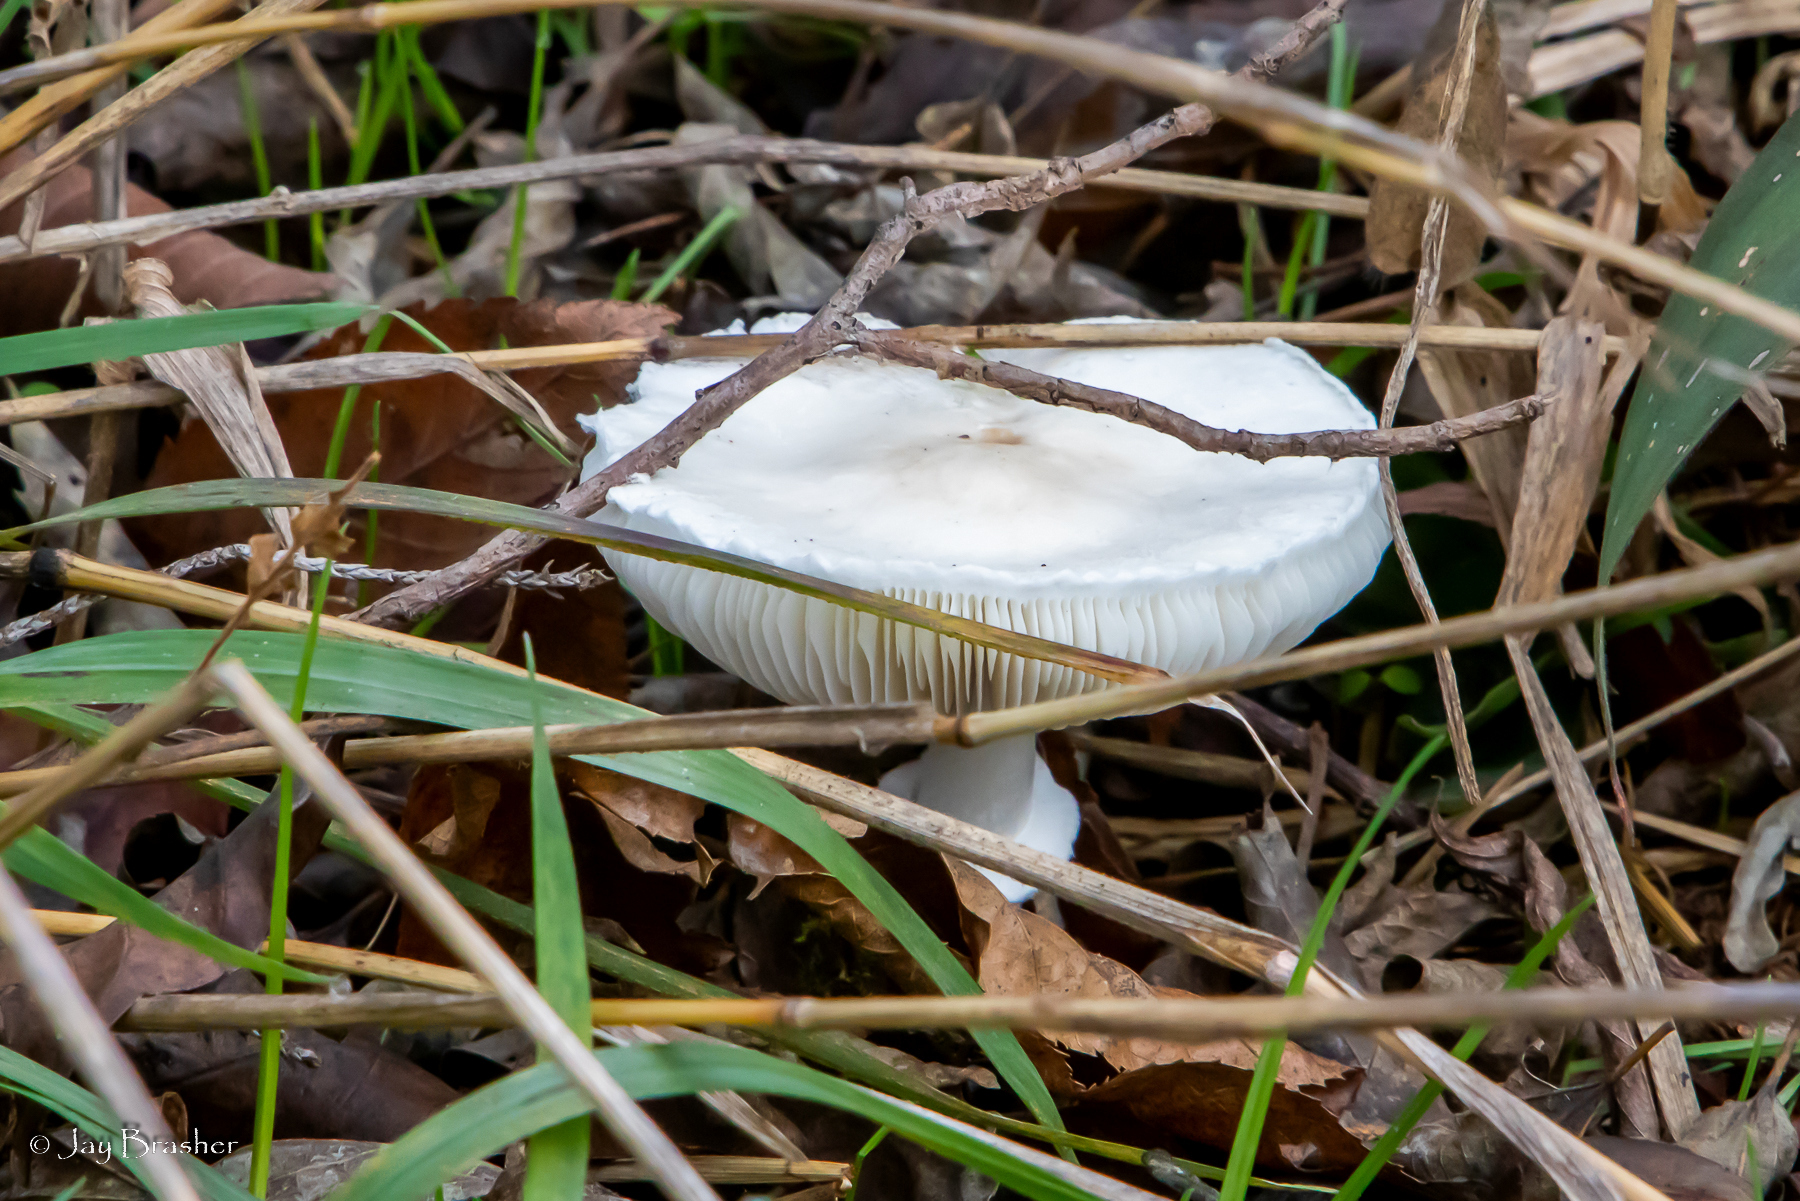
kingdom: Fungi
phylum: Basidiomycota
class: Agaricomycetes
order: Agaricales
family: Agaricaceae
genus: Leucoagaricus
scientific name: Leucoagaricus leucothites
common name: White dapperling
